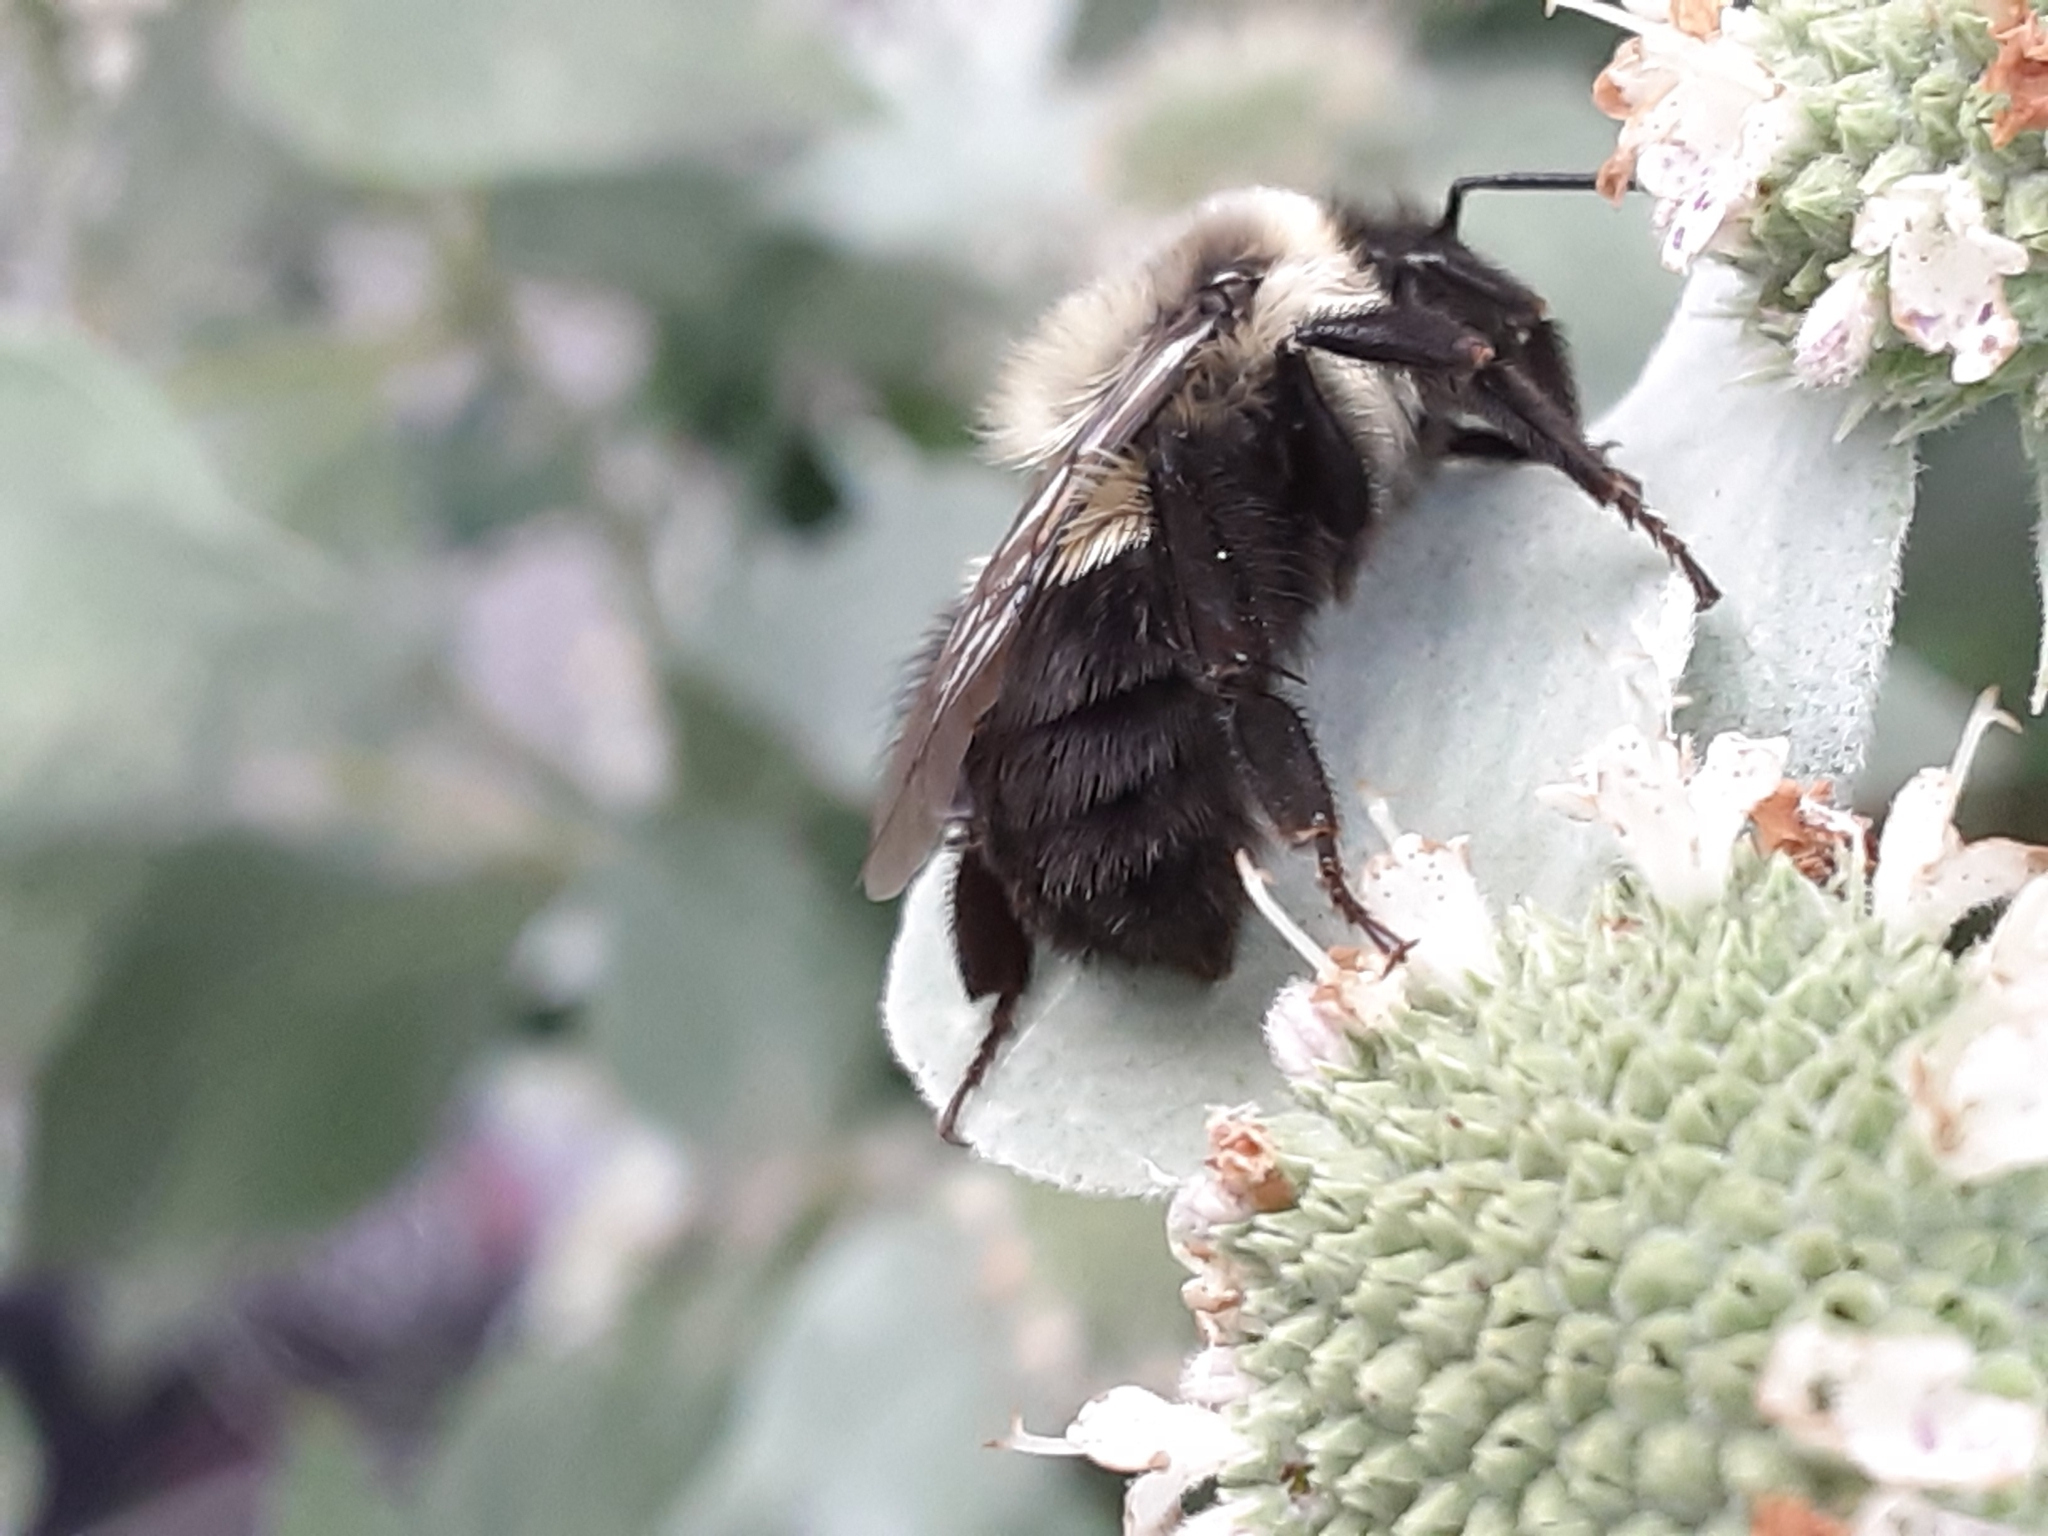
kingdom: Animalia
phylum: Arthropoda
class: Insecta
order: Hymenoptera
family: Apidae
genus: Bombus
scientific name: Bombus impatiens
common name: Common eastern bumble bee
